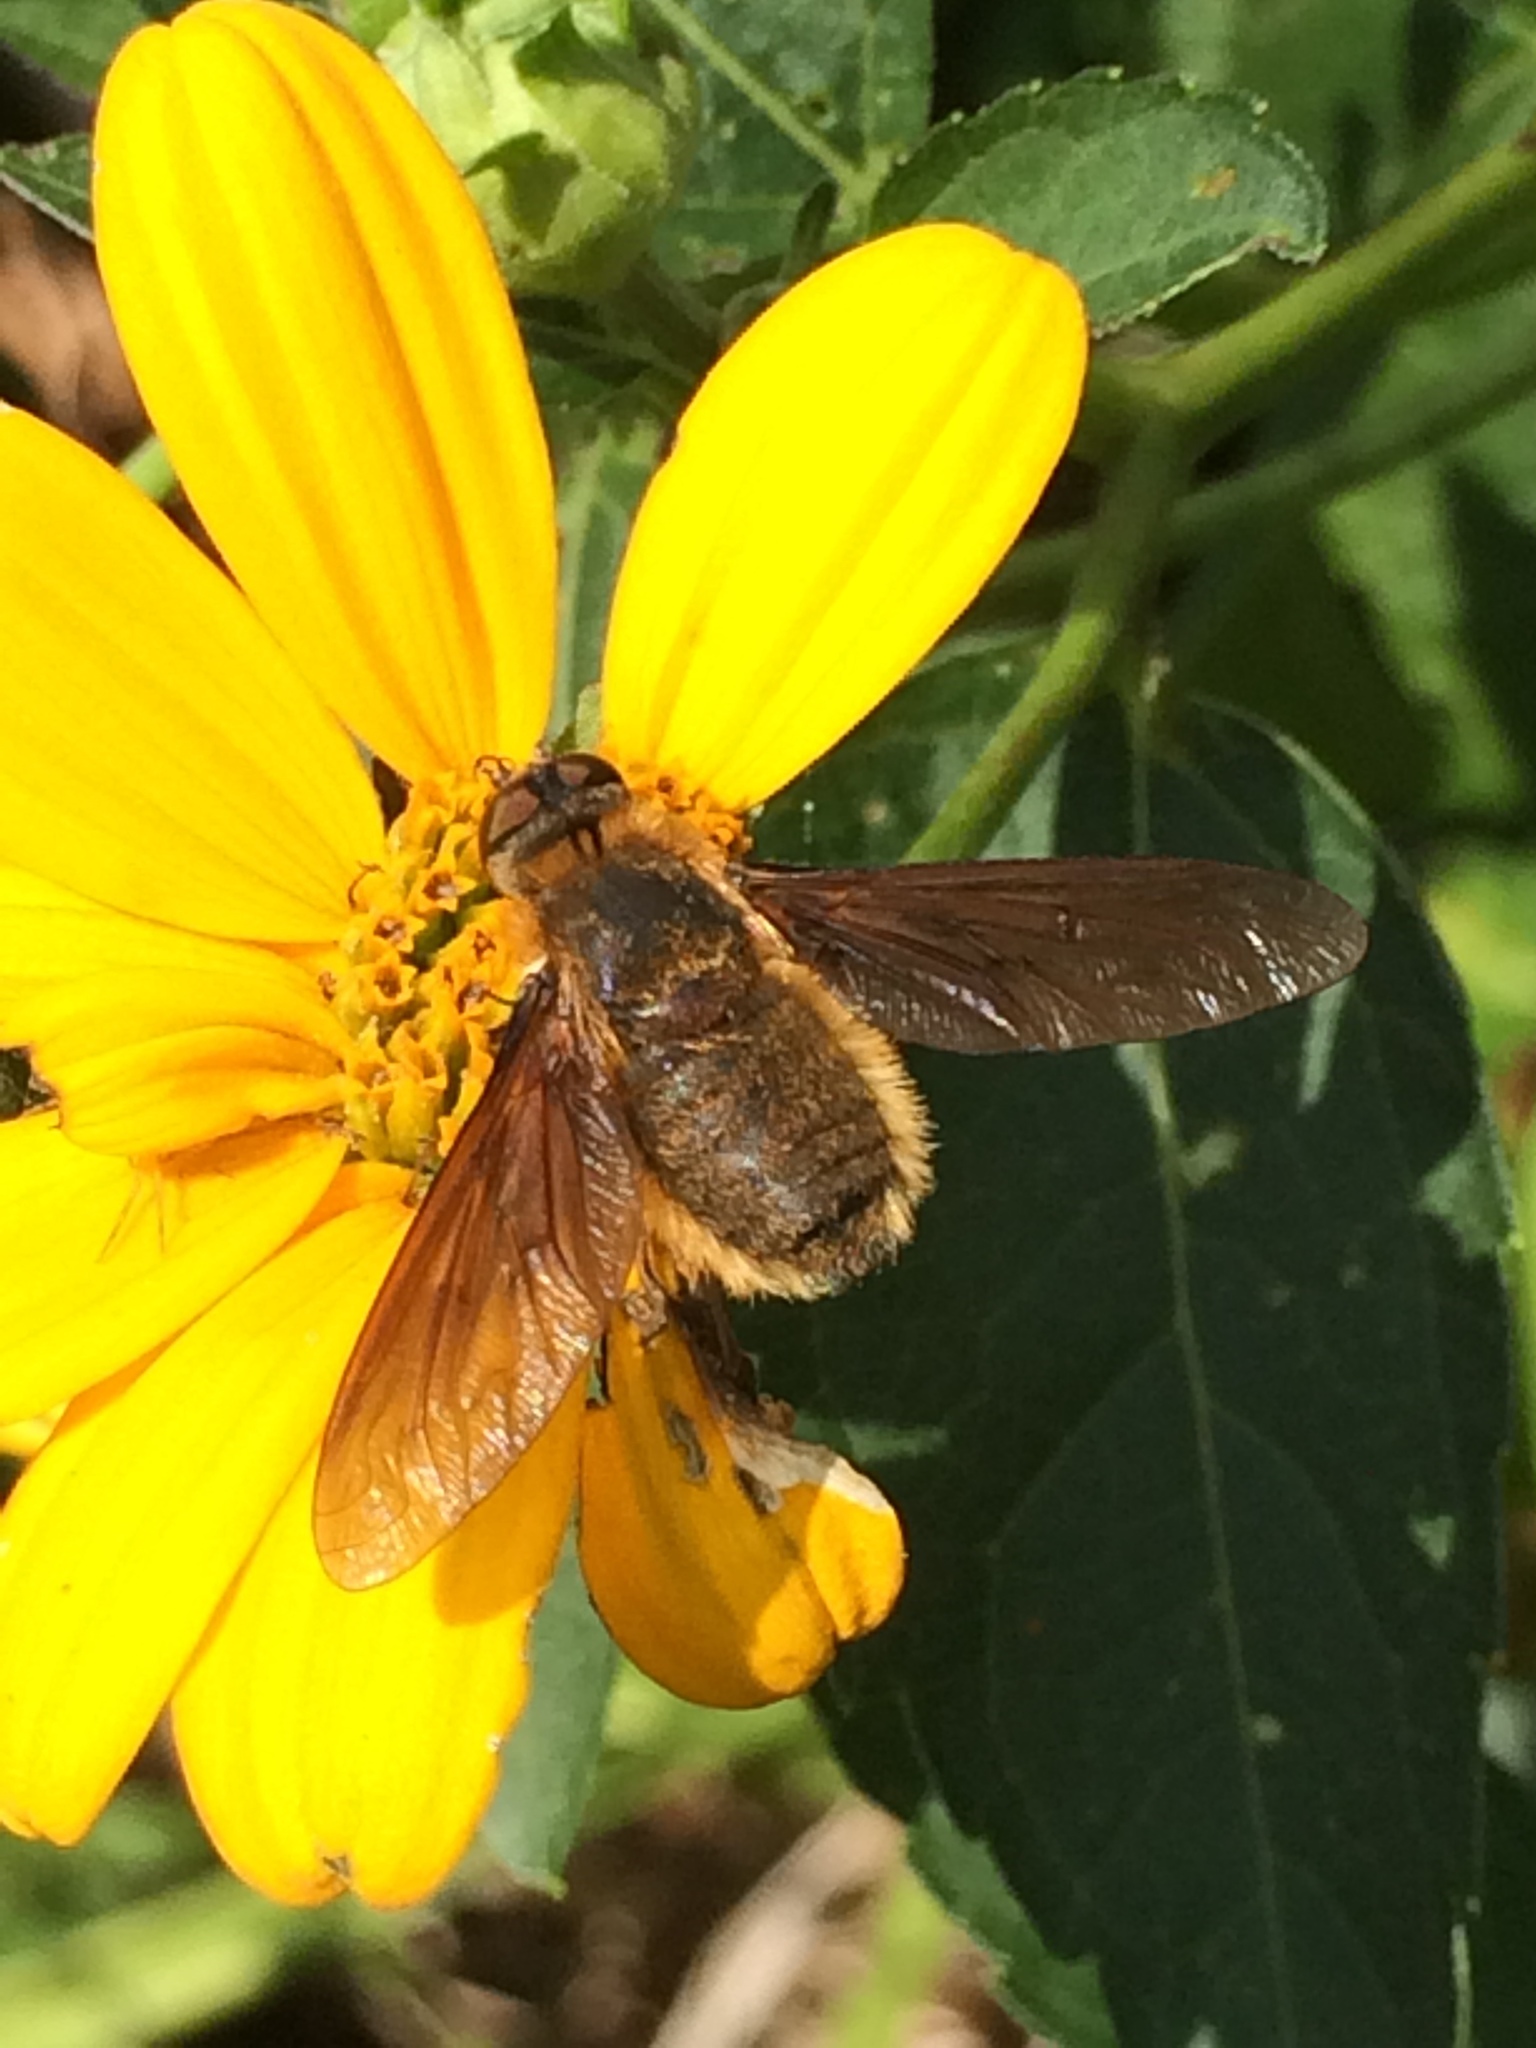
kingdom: Animalia
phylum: Arthropoda
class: Insecta
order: Diptera
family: Bombyliidae
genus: Poecilanthrax
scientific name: Poecilanthrax tegminipennis
